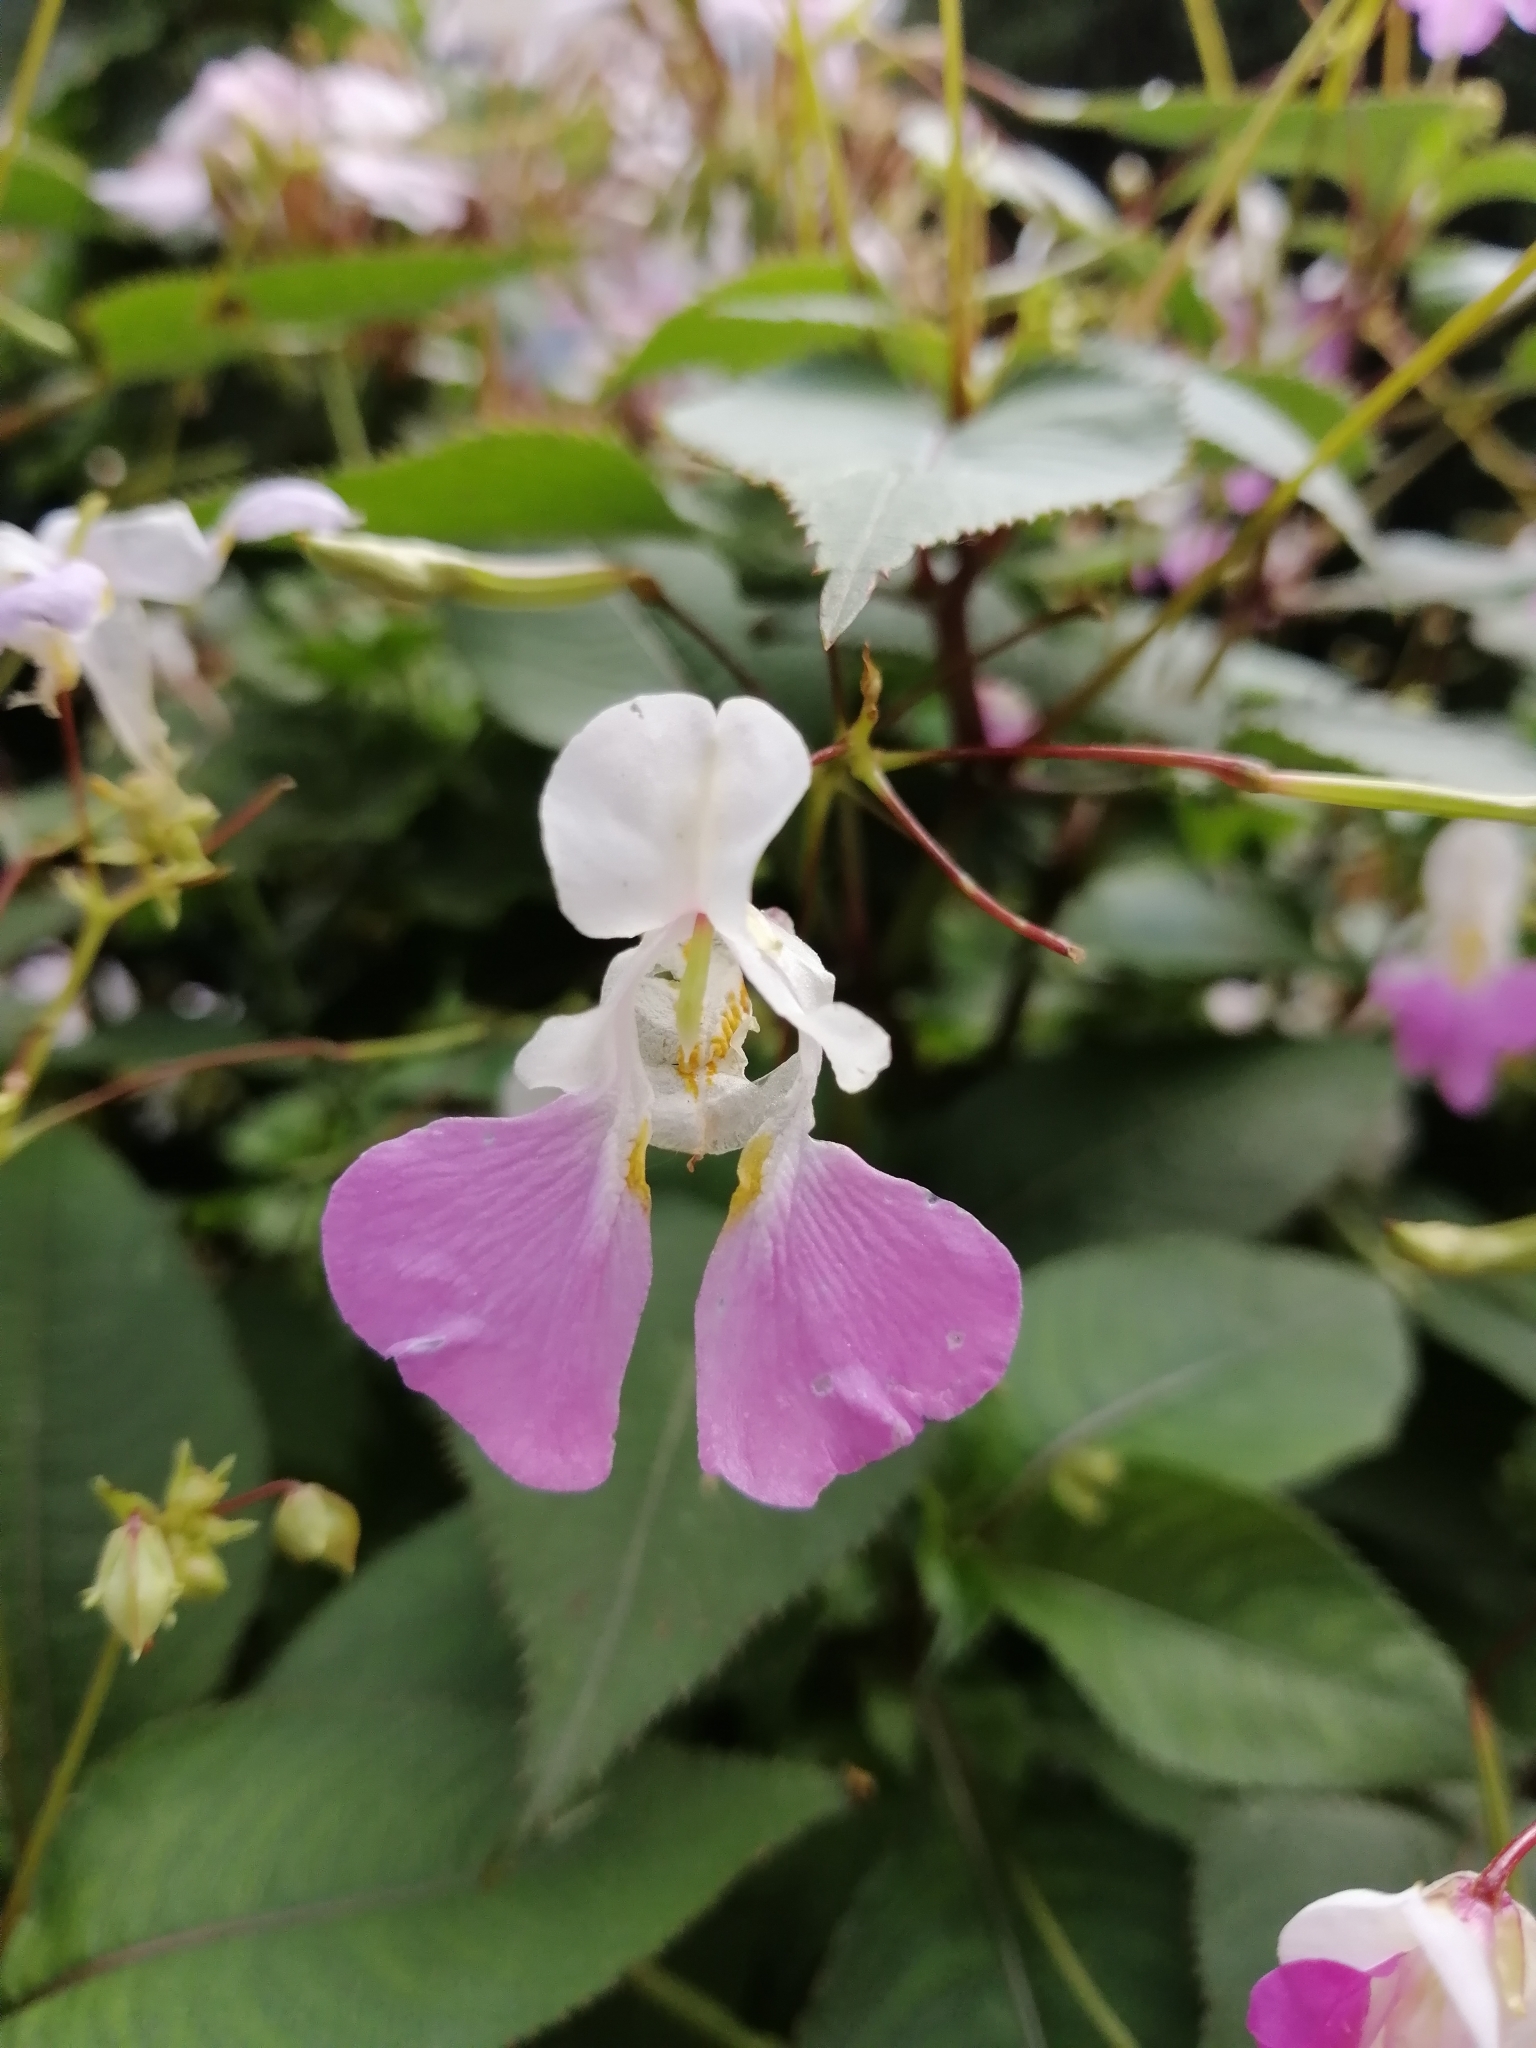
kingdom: Plantae
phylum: Tracheophyta
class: Magnoliopsida
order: Ericales
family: Balsaminaceae
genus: Impatiens
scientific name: Impatiens balfourii
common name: Balfour's touch-me-not
